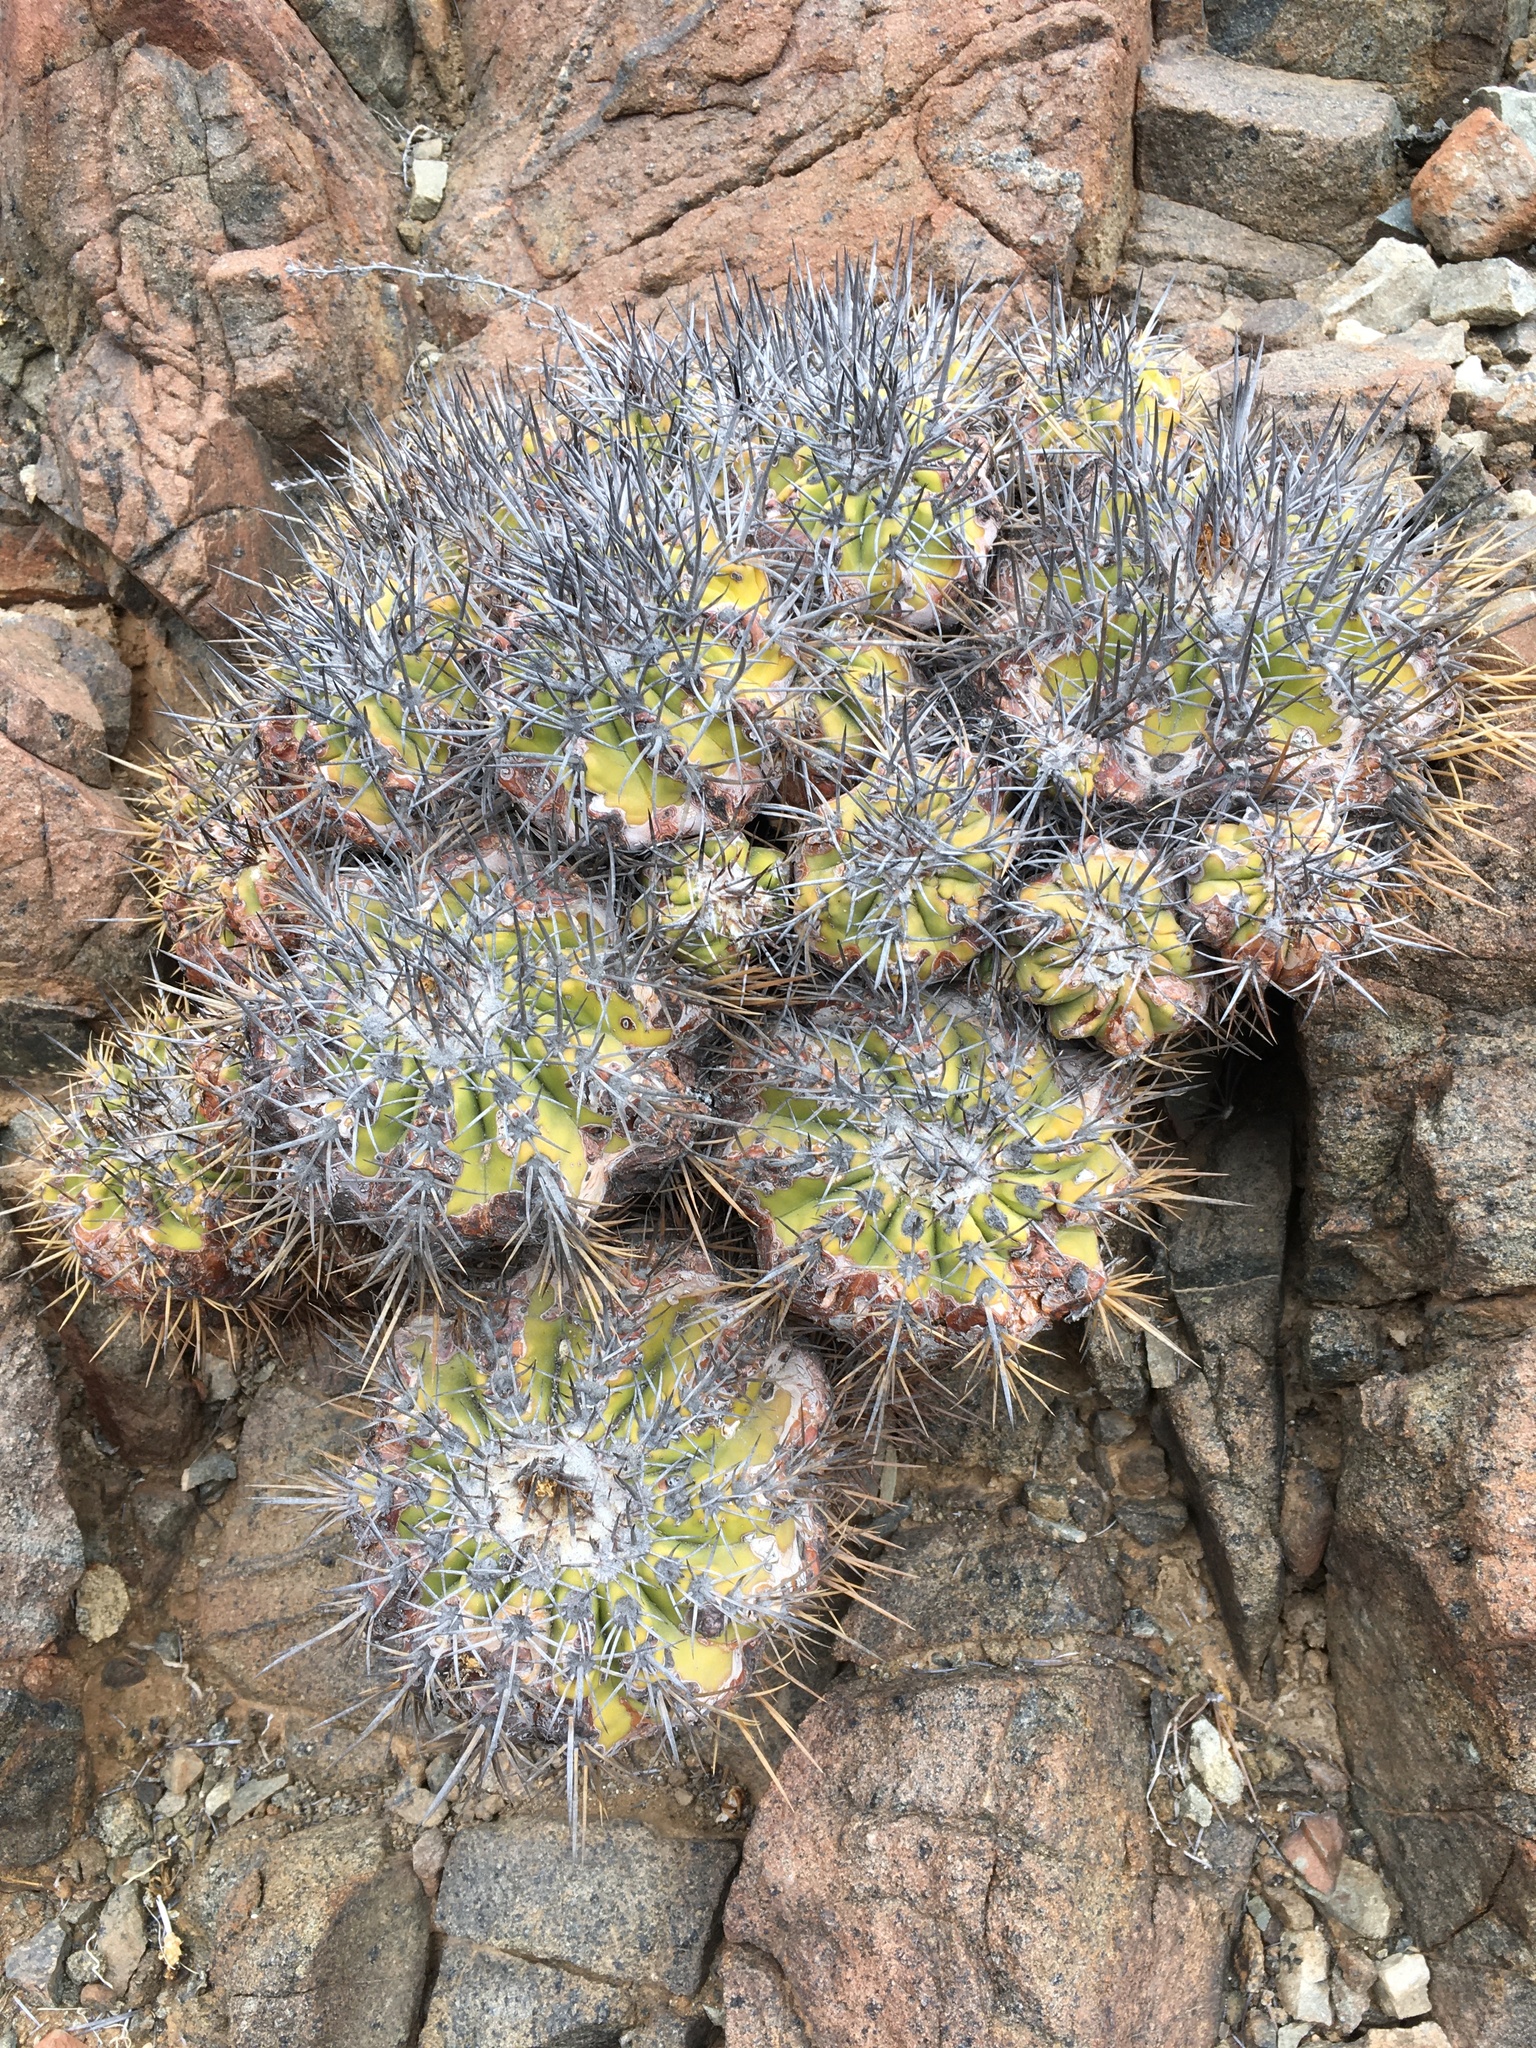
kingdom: Plantae
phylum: Tracheophyta
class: Magnoliopsida
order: Caryophyllales
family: Cactaceae
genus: Copiapoa
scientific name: Copiapoa echinoides
